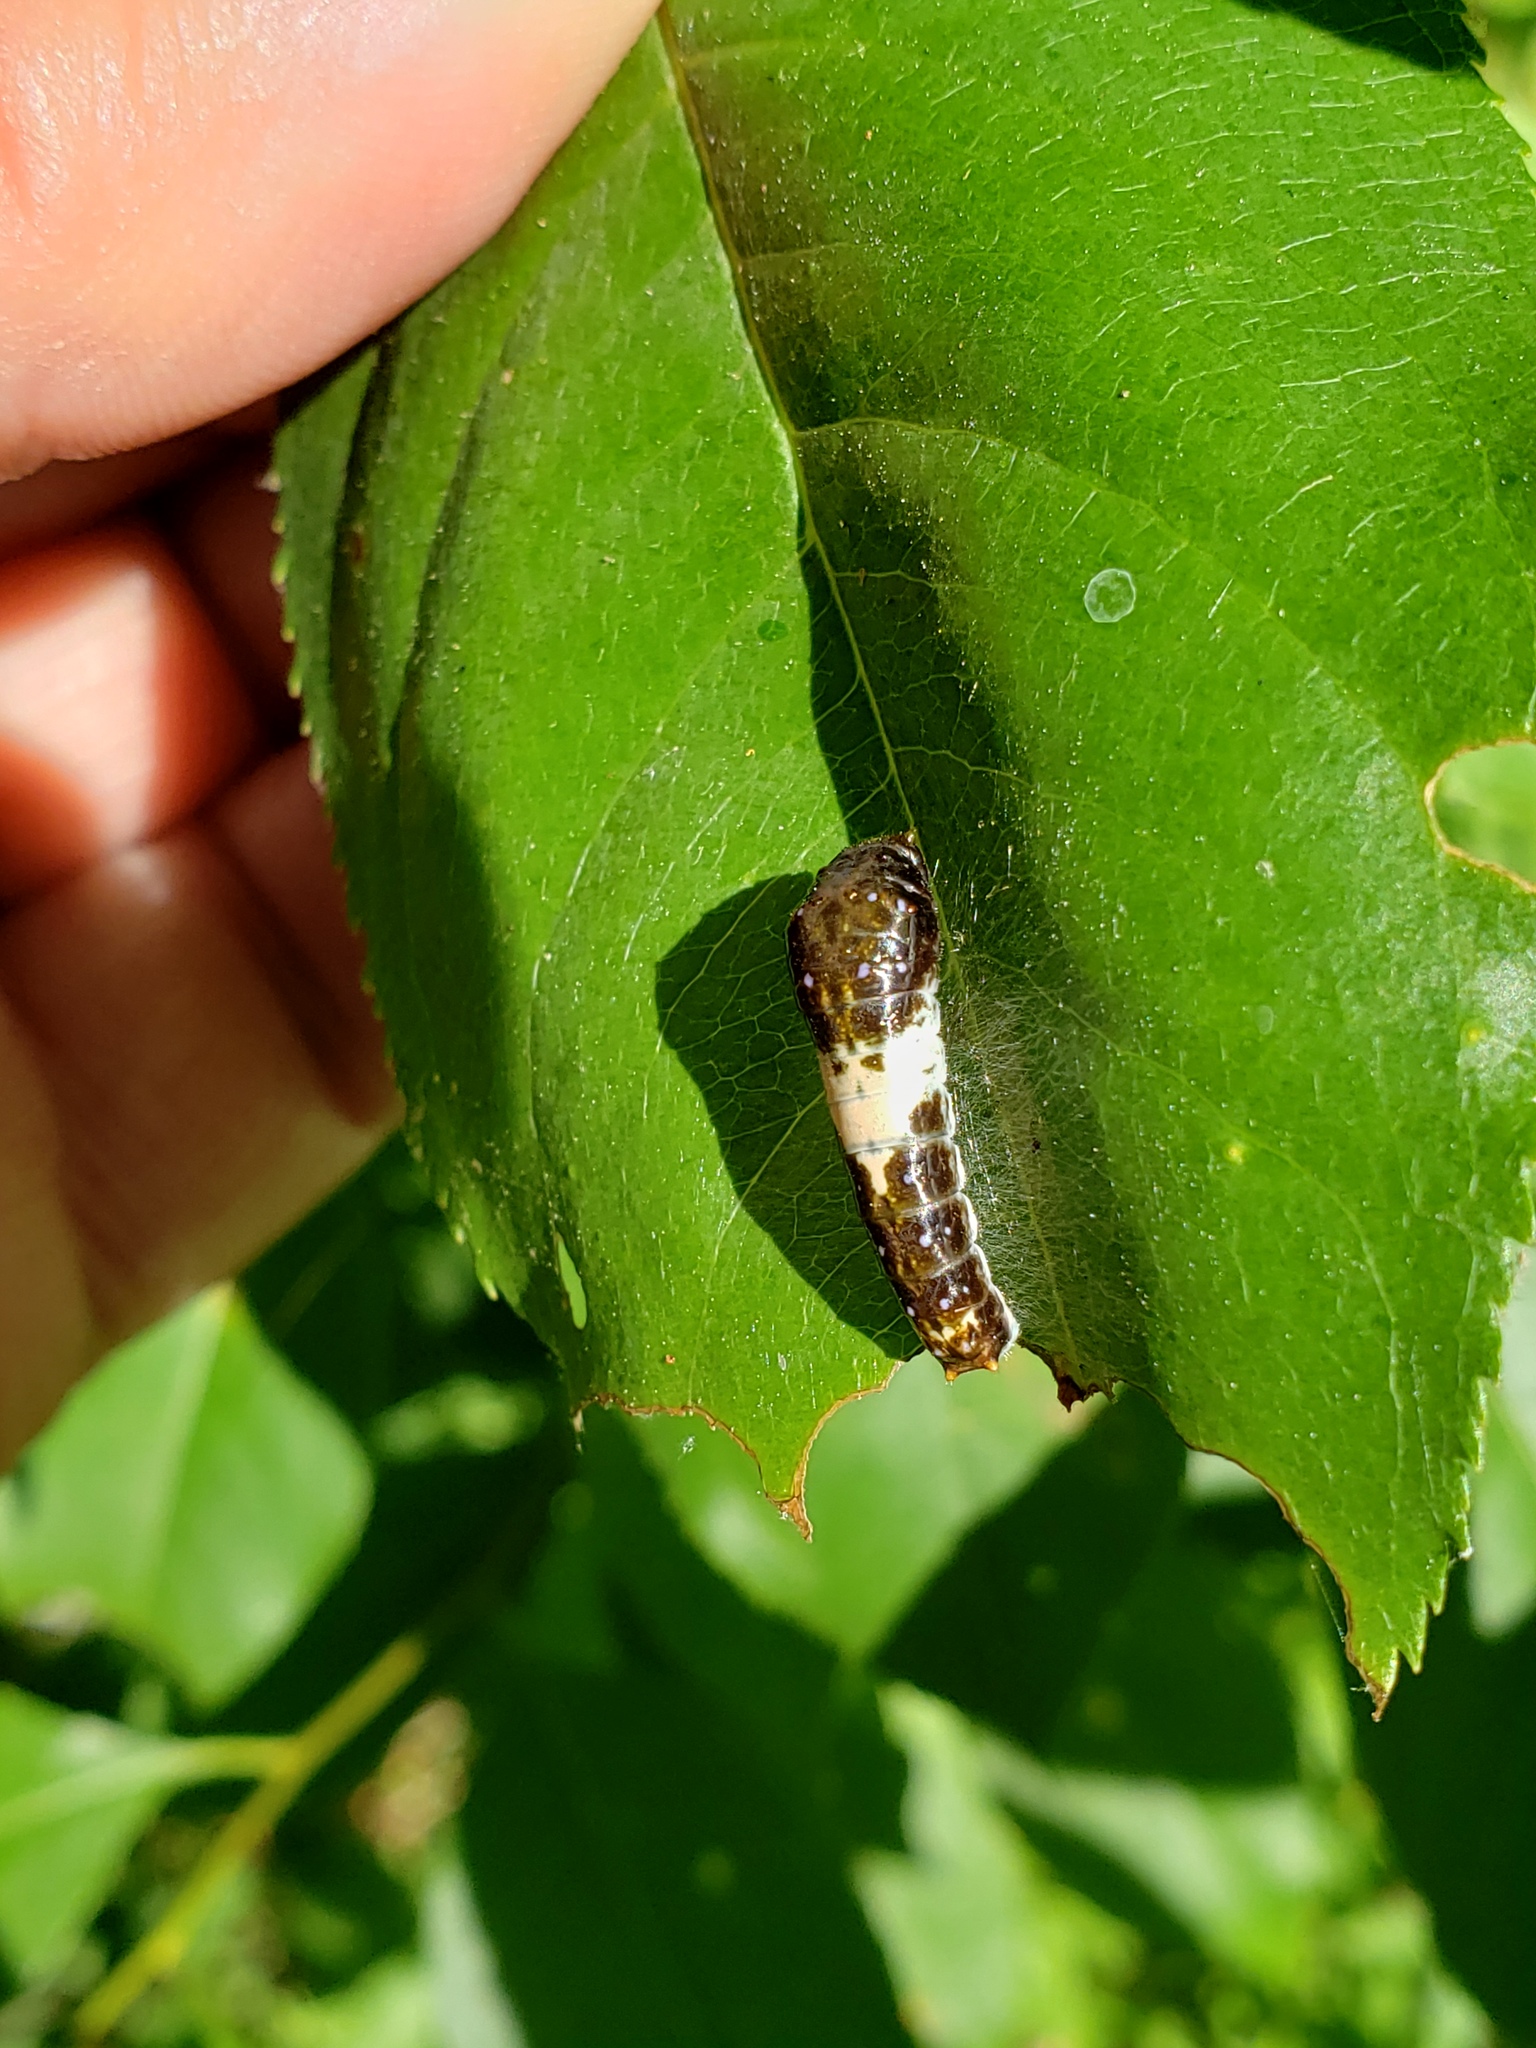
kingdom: Animalia
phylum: Arthropoda
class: Insecta
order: Lepidoptera
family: Papilionidae
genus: Papilio
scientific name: Papilio glaucus
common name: Tiger swallowtail
